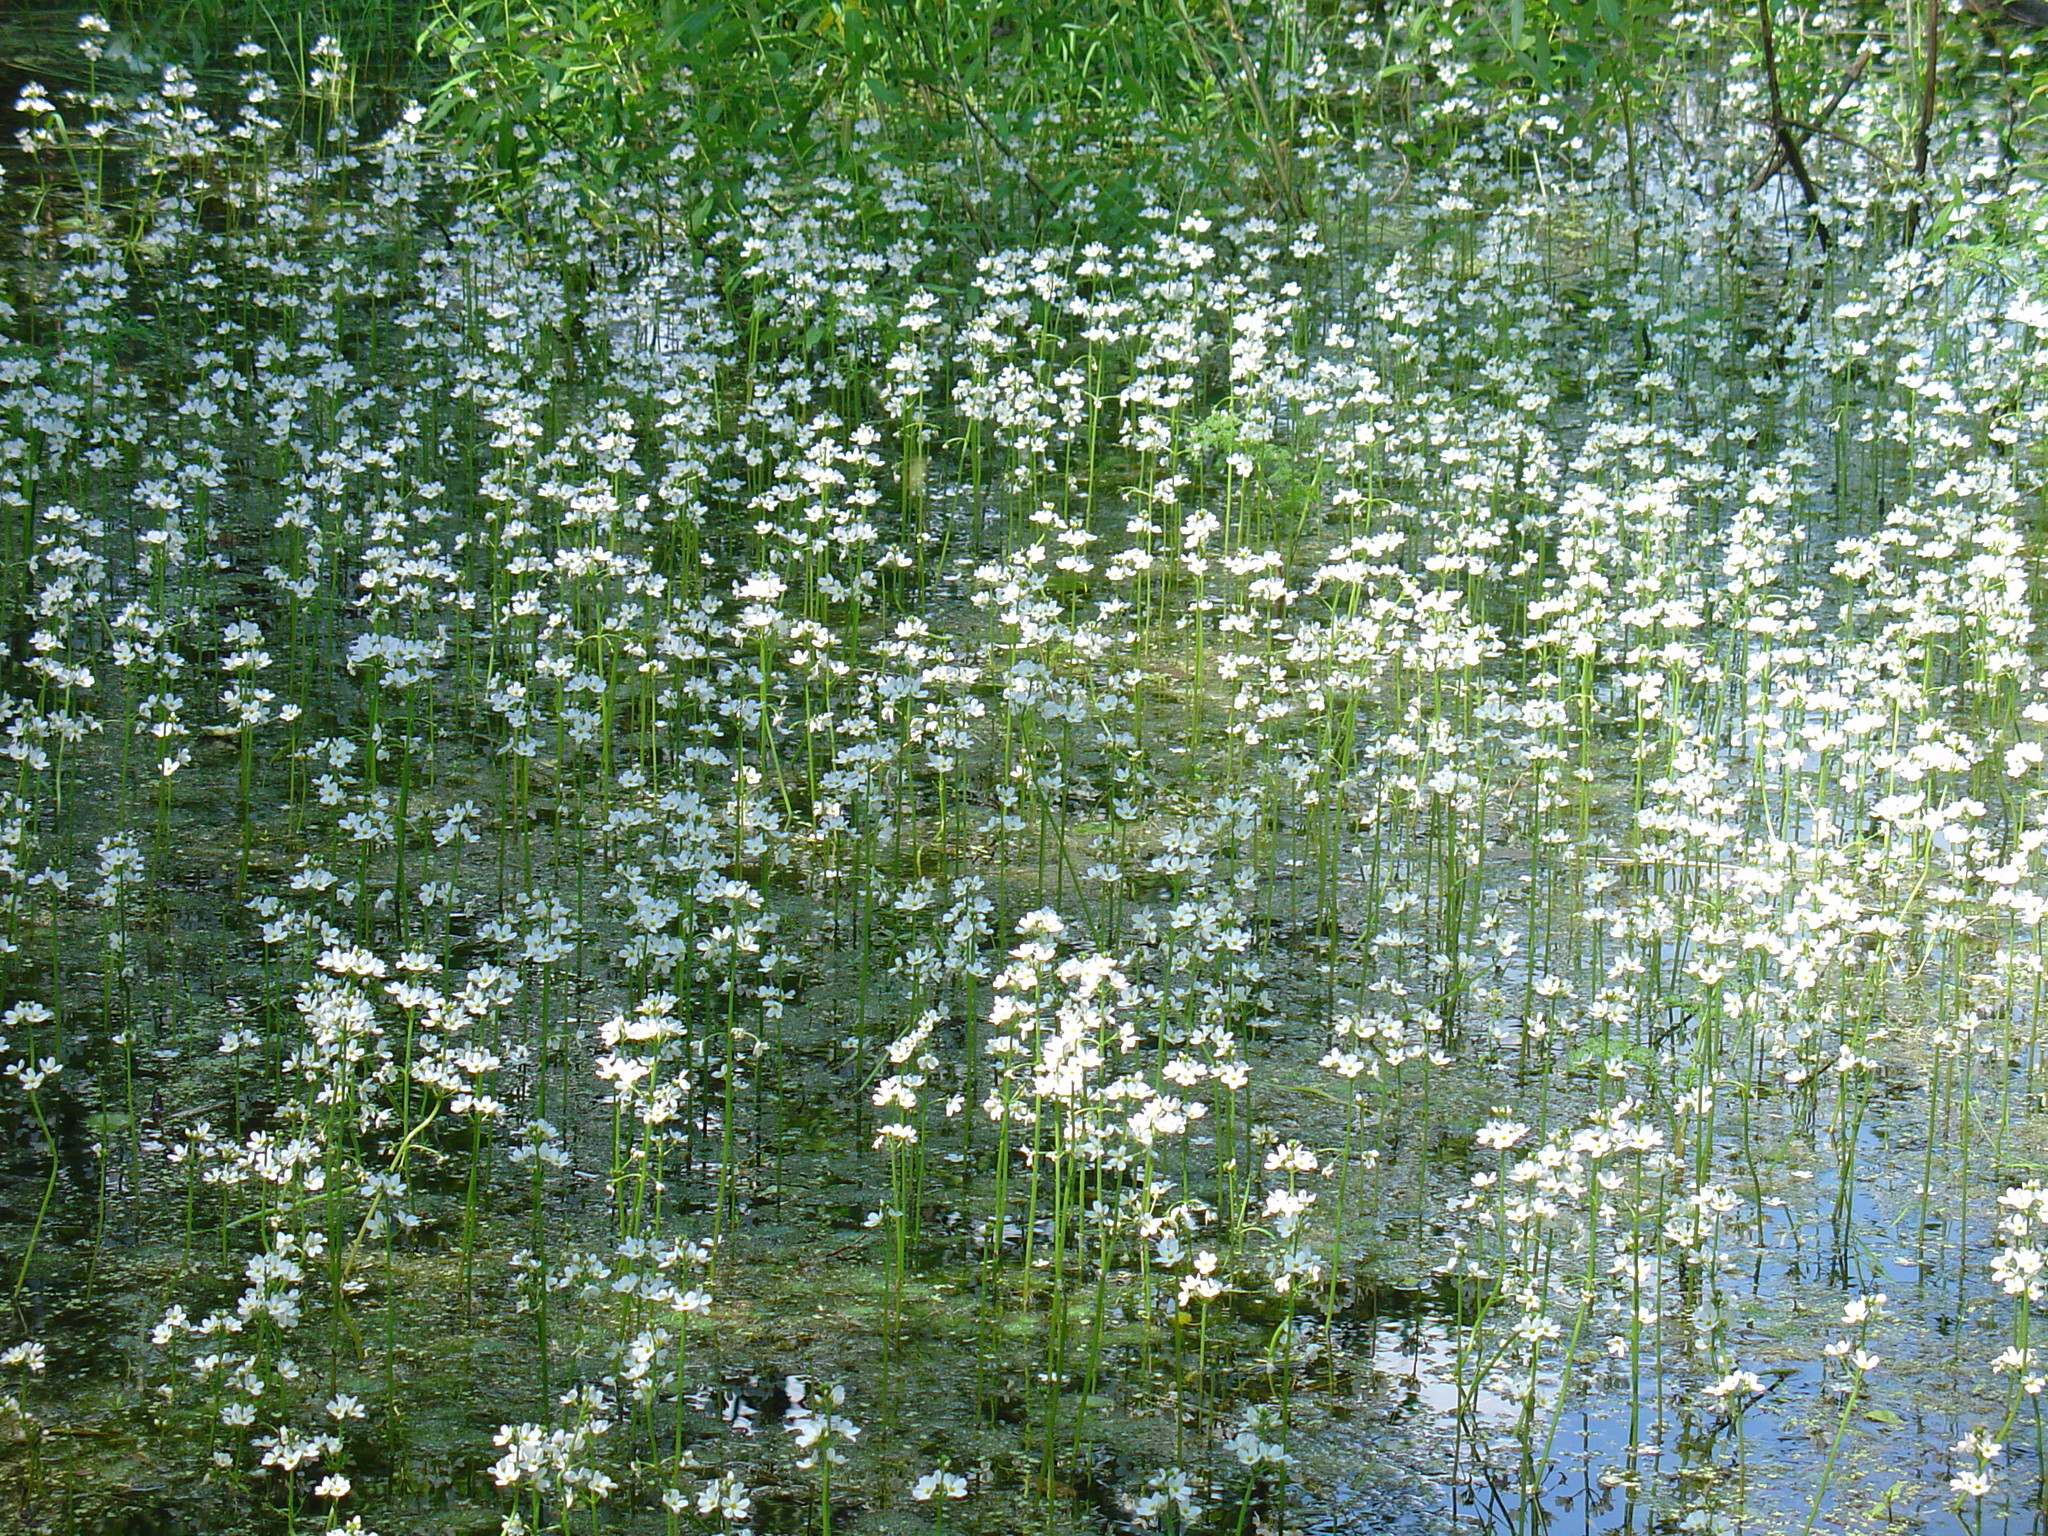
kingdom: Plantae
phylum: Tracheophyta
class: Magnoliopsida
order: Ericales
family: Primulaceae
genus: Hottonia
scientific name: Hottonia palustris
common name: Water-violet
